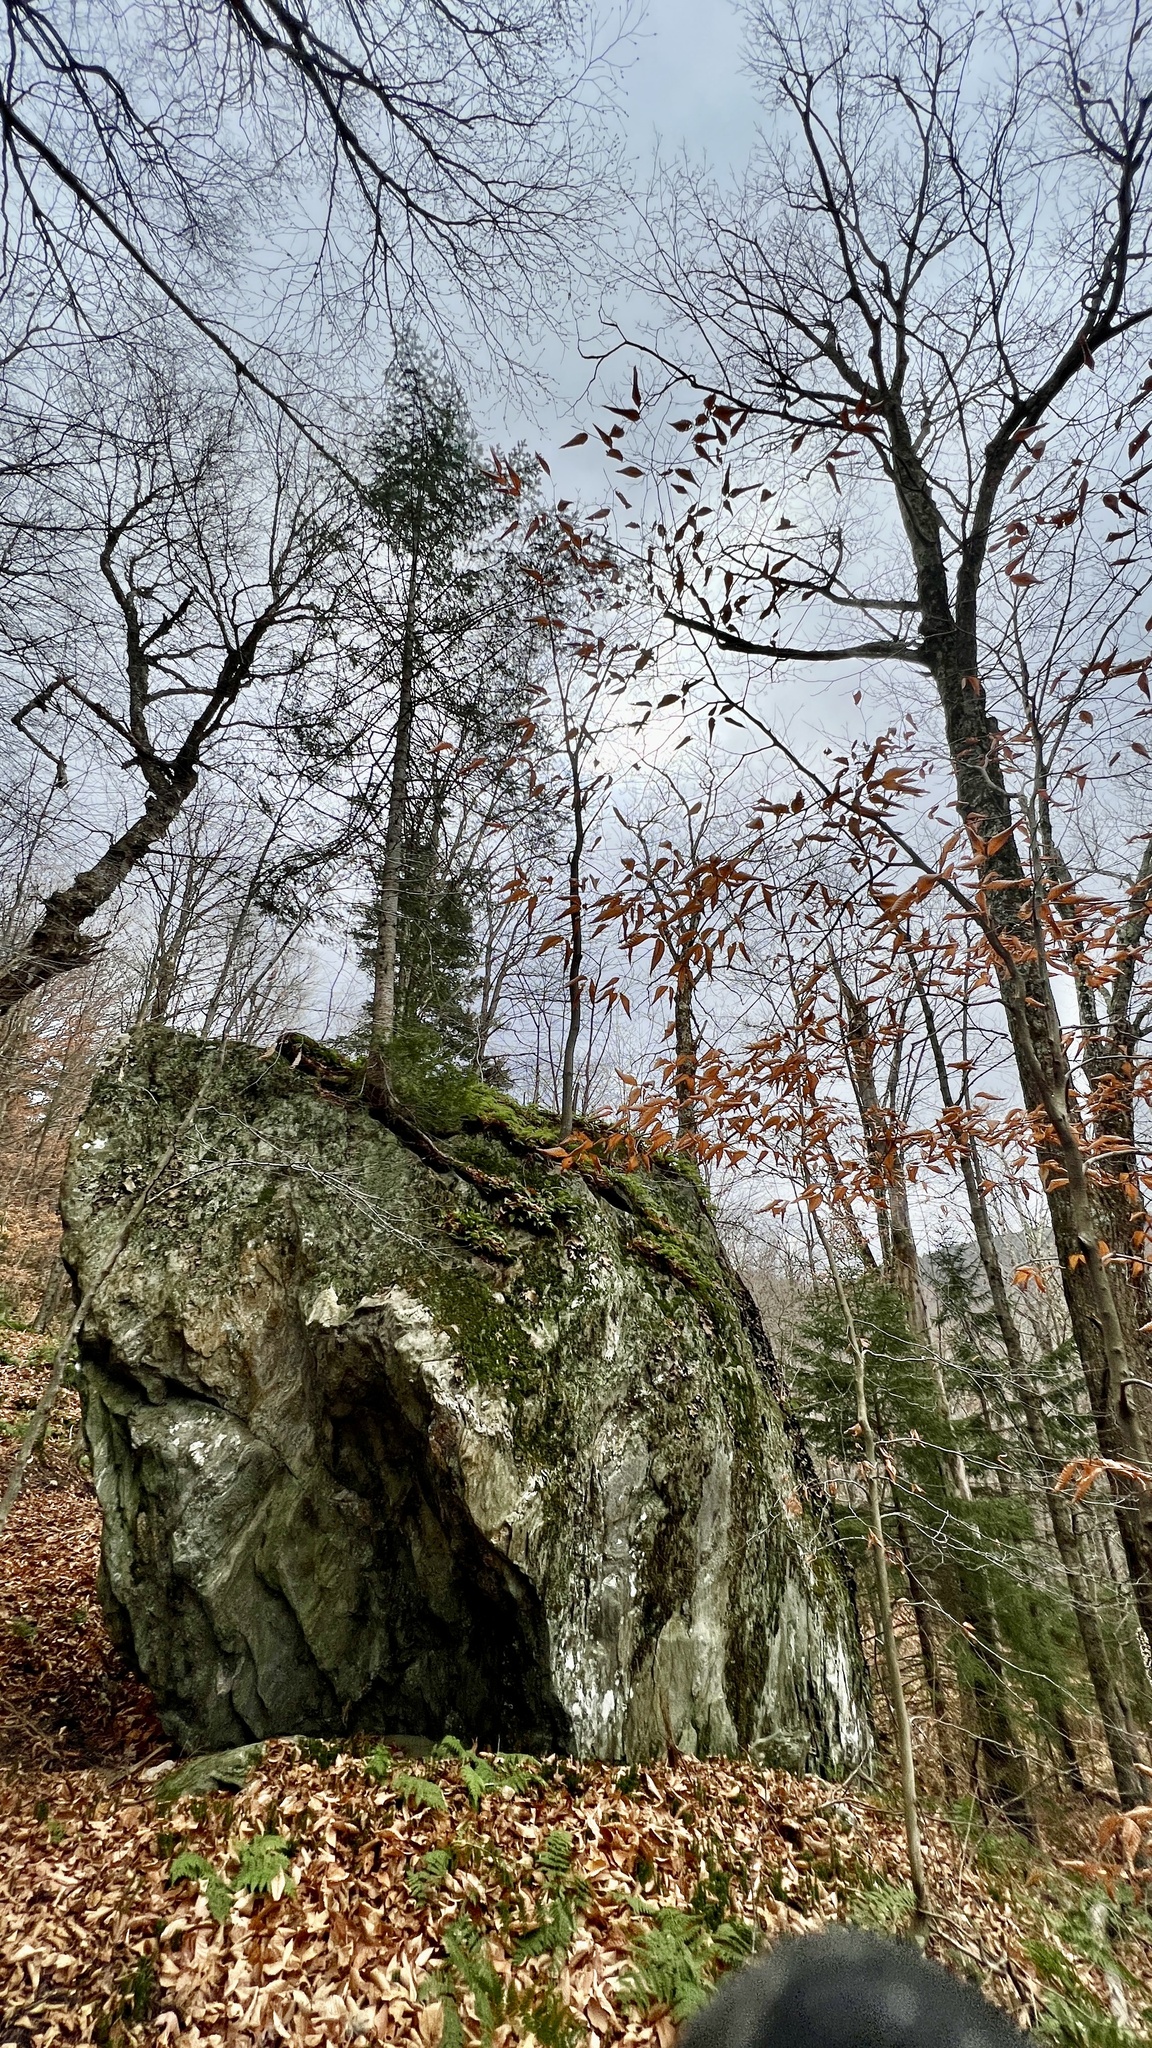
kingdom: Plantae
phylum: Tracheophyta
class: Magnoliopsida
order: Fagales
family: Fagaceae
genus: Fagus
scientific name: Fagus grandifolia
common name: American beech
